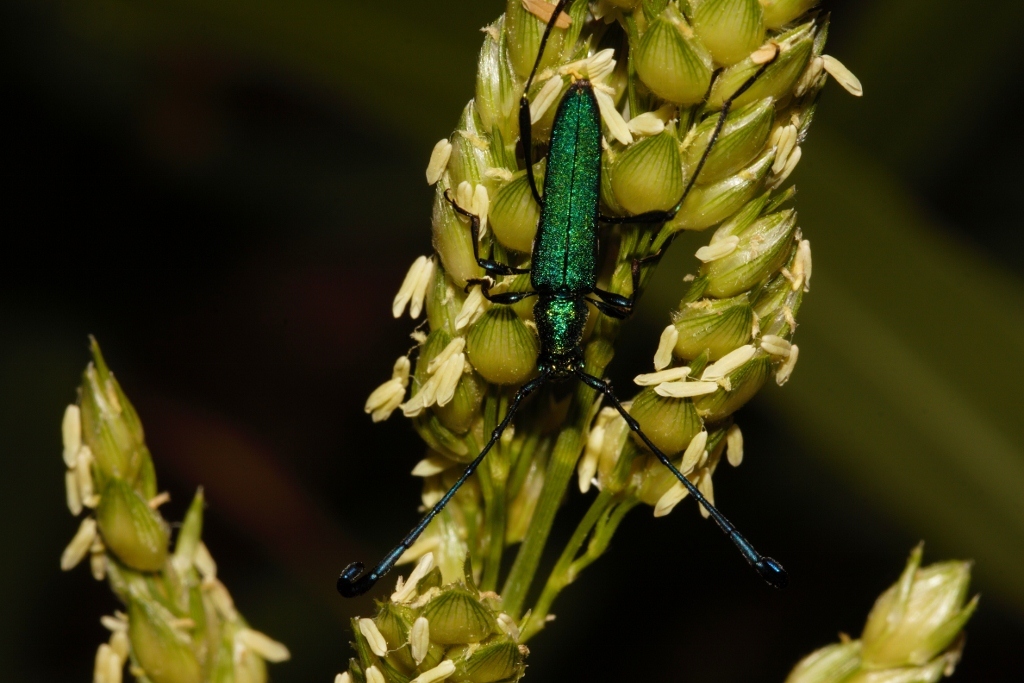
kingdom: Animalia
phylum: Arthropoda
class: Insecta
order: Coleoptera
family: Cerambycidae
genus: Hypocrites
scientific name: Hypocrites
